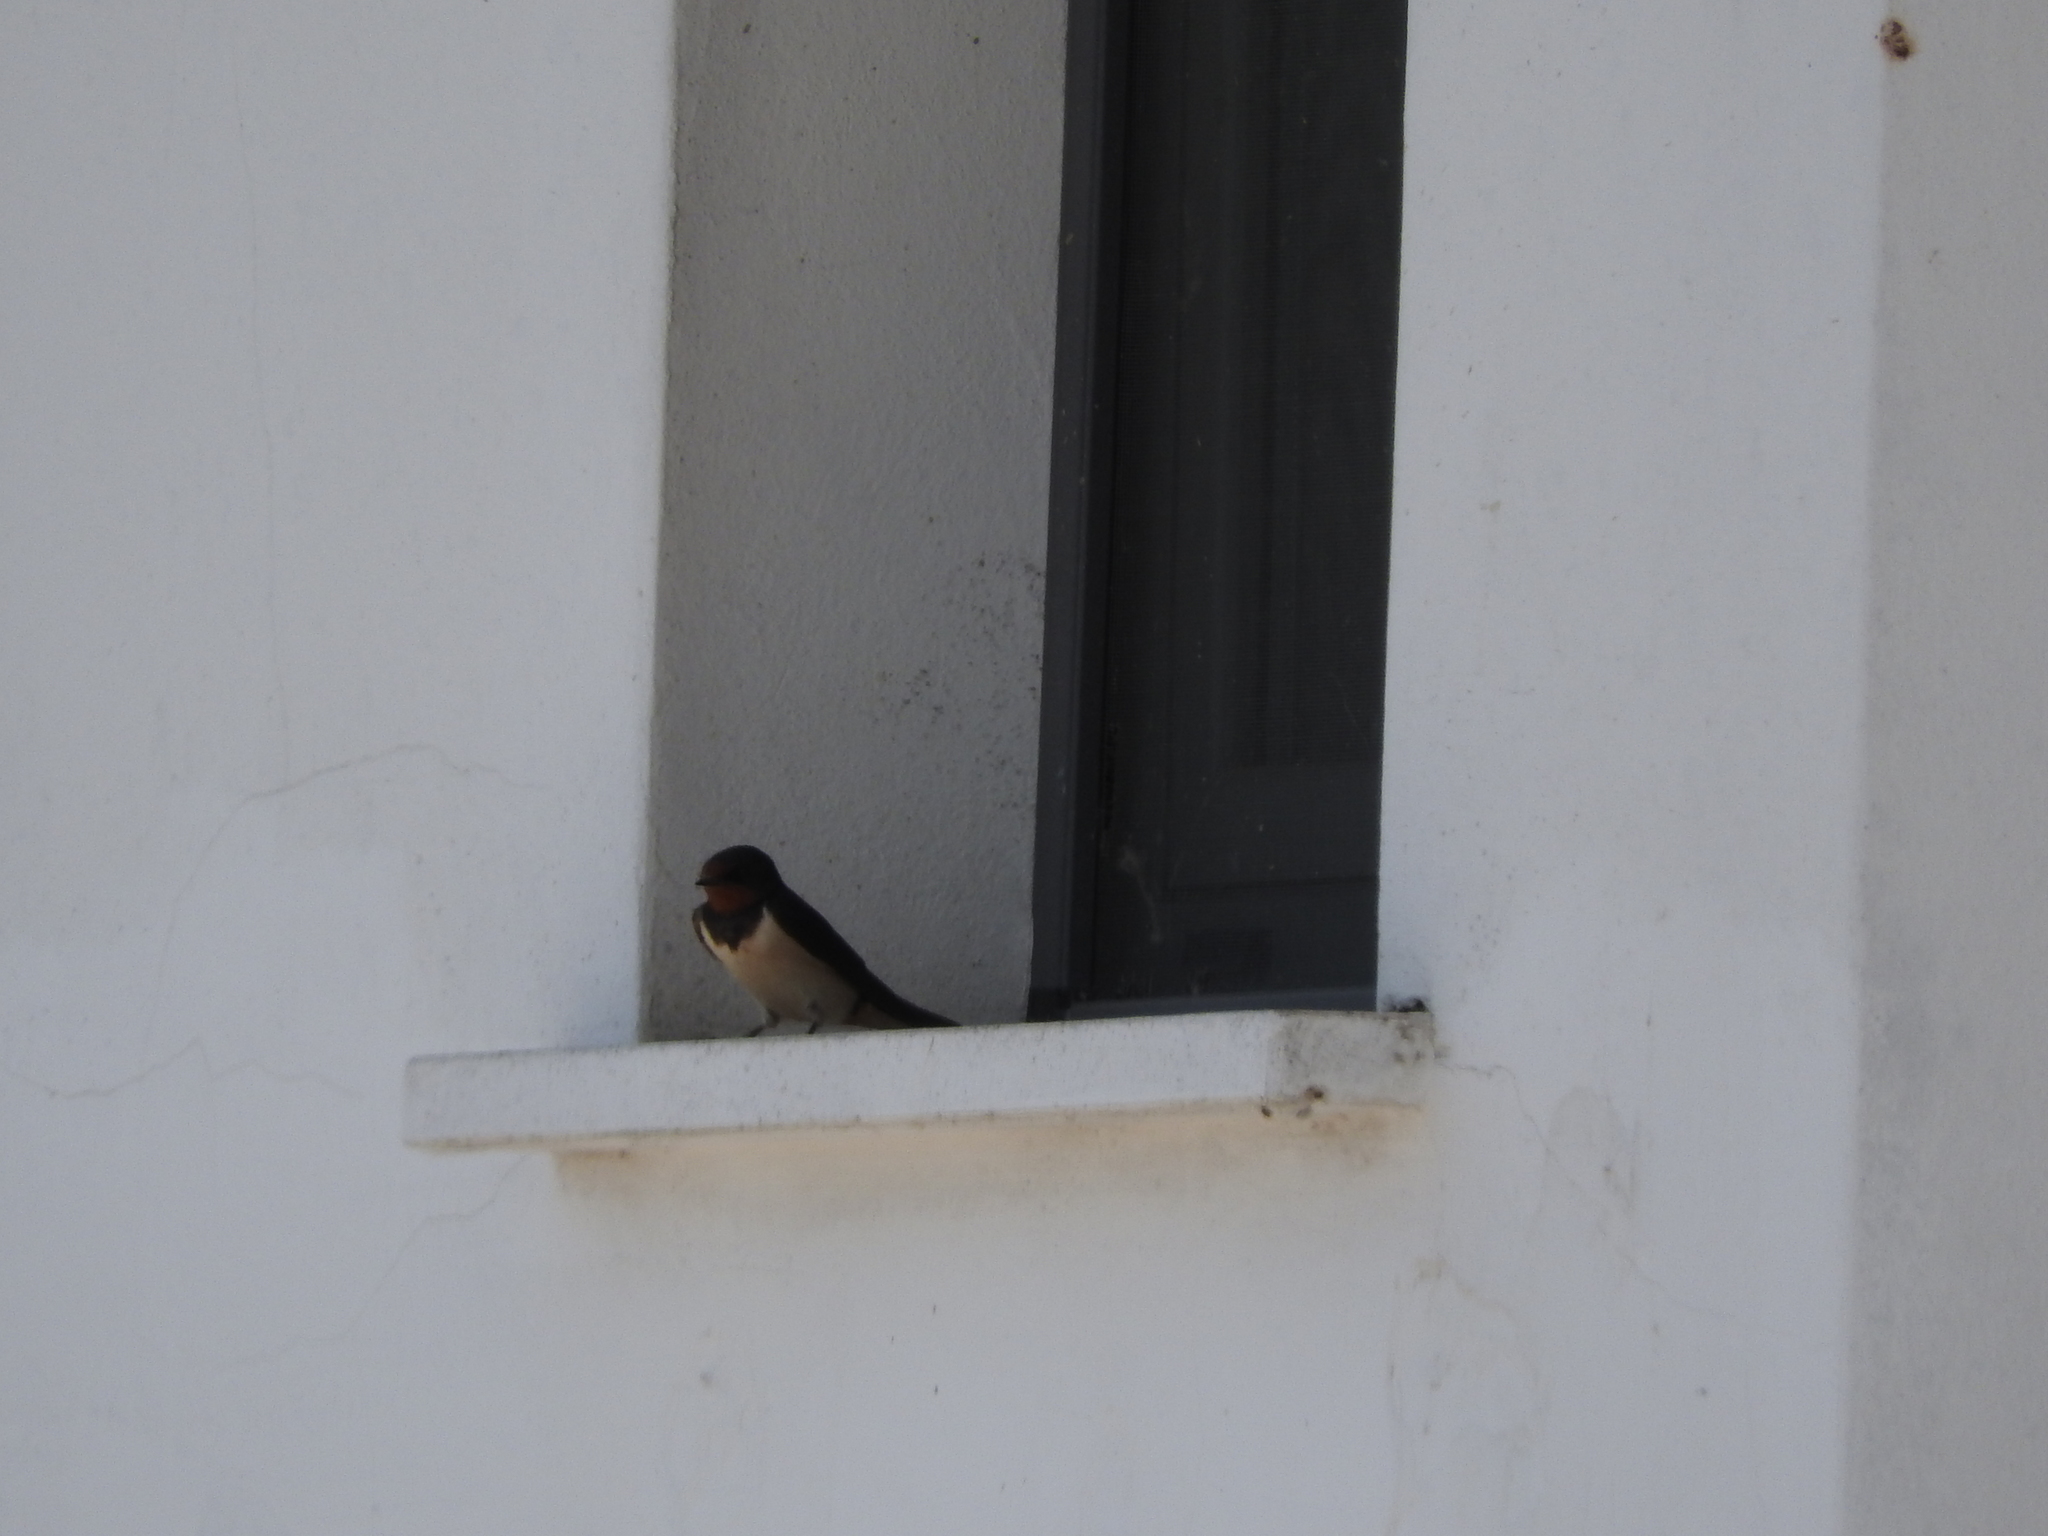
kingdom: Animalia
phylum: Chordata
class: Aves
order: Passeriformes
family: Hirundinidae
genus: Hirundo
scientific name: Hirundo rustica
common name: Barn swallow
